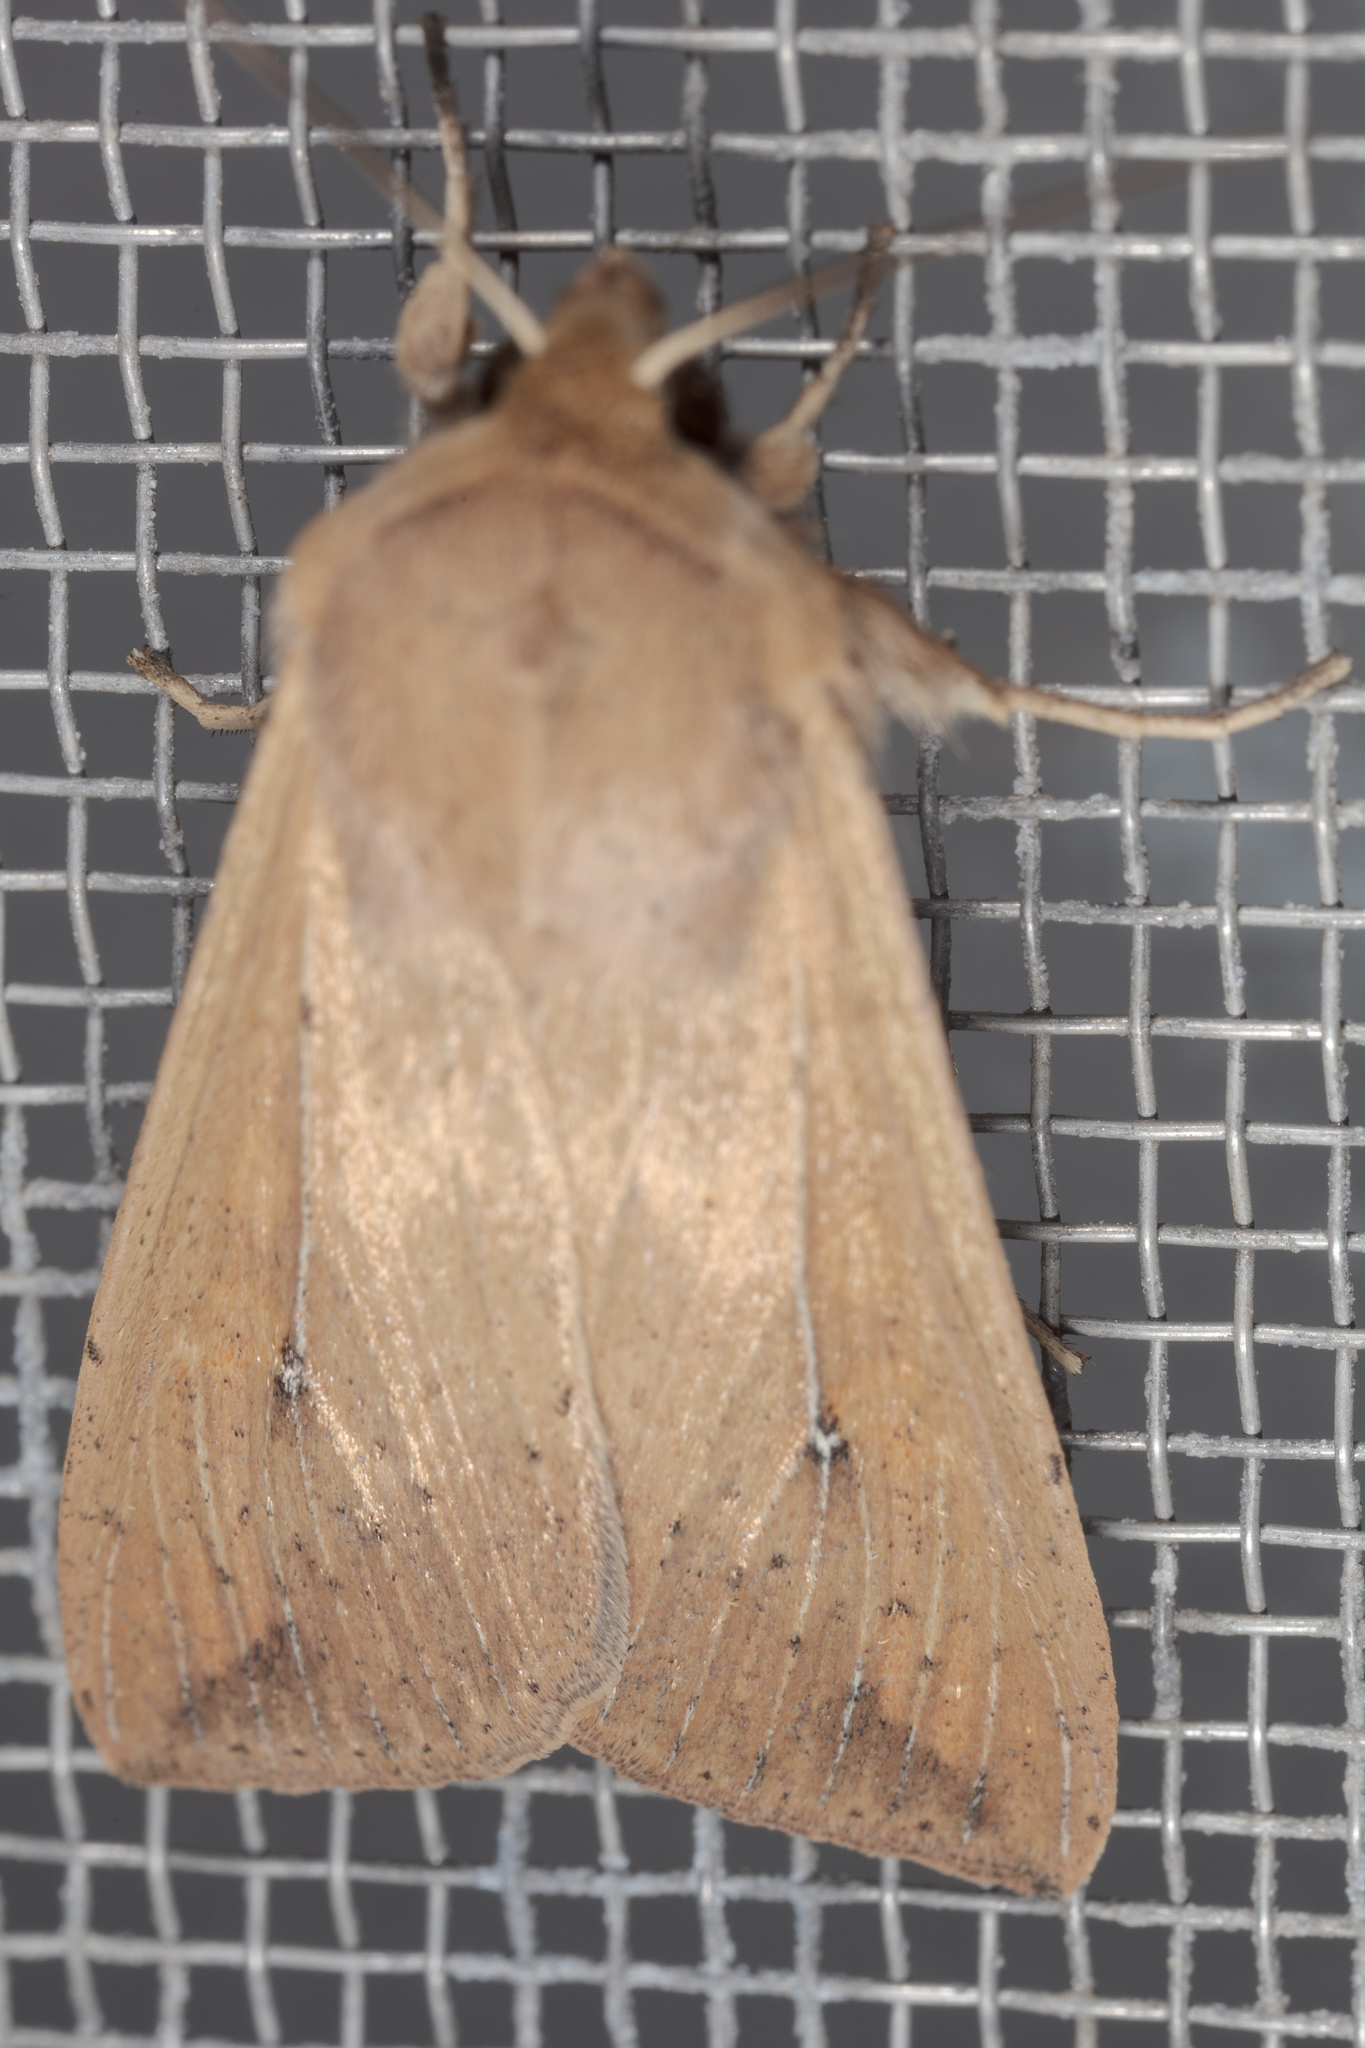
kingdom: Animalia
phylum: Arthropoda
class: Insecta
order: Lepidoptera
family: Noctuidae
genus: Mythimna
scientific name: Mythimna unipuncta
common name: White-speck
